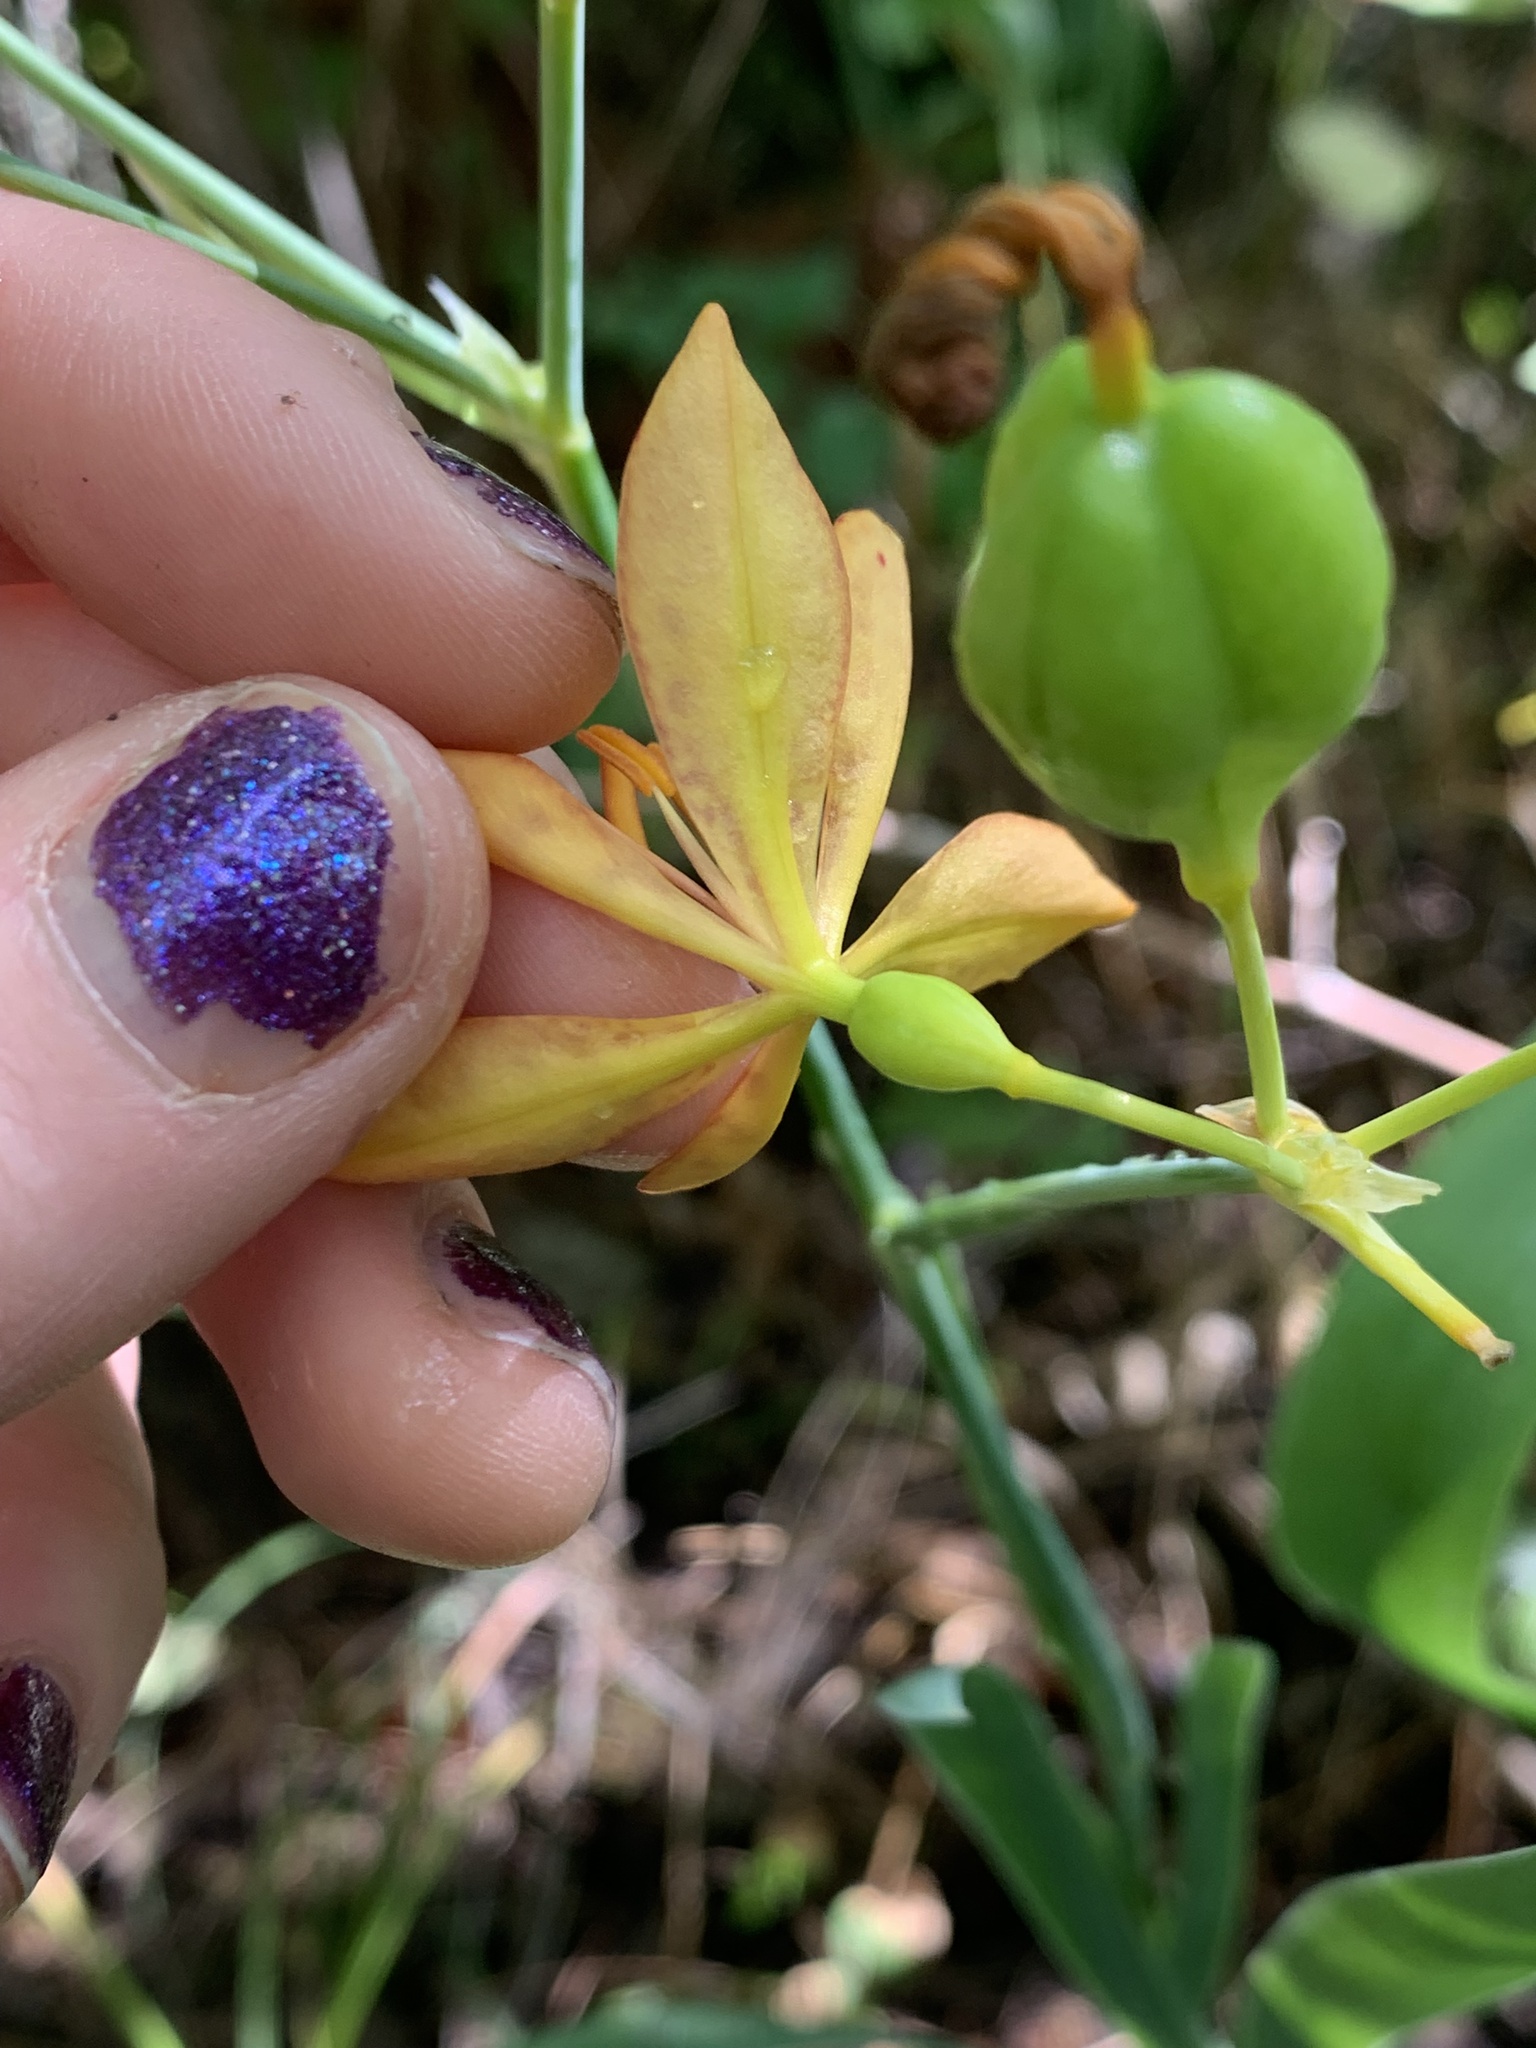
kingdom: Plantae
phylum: Tracheophyta
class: Liliopsida
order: Asparagales
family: Iridaceae
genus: Iris
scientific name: Iris domestica
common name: Belamcanda
